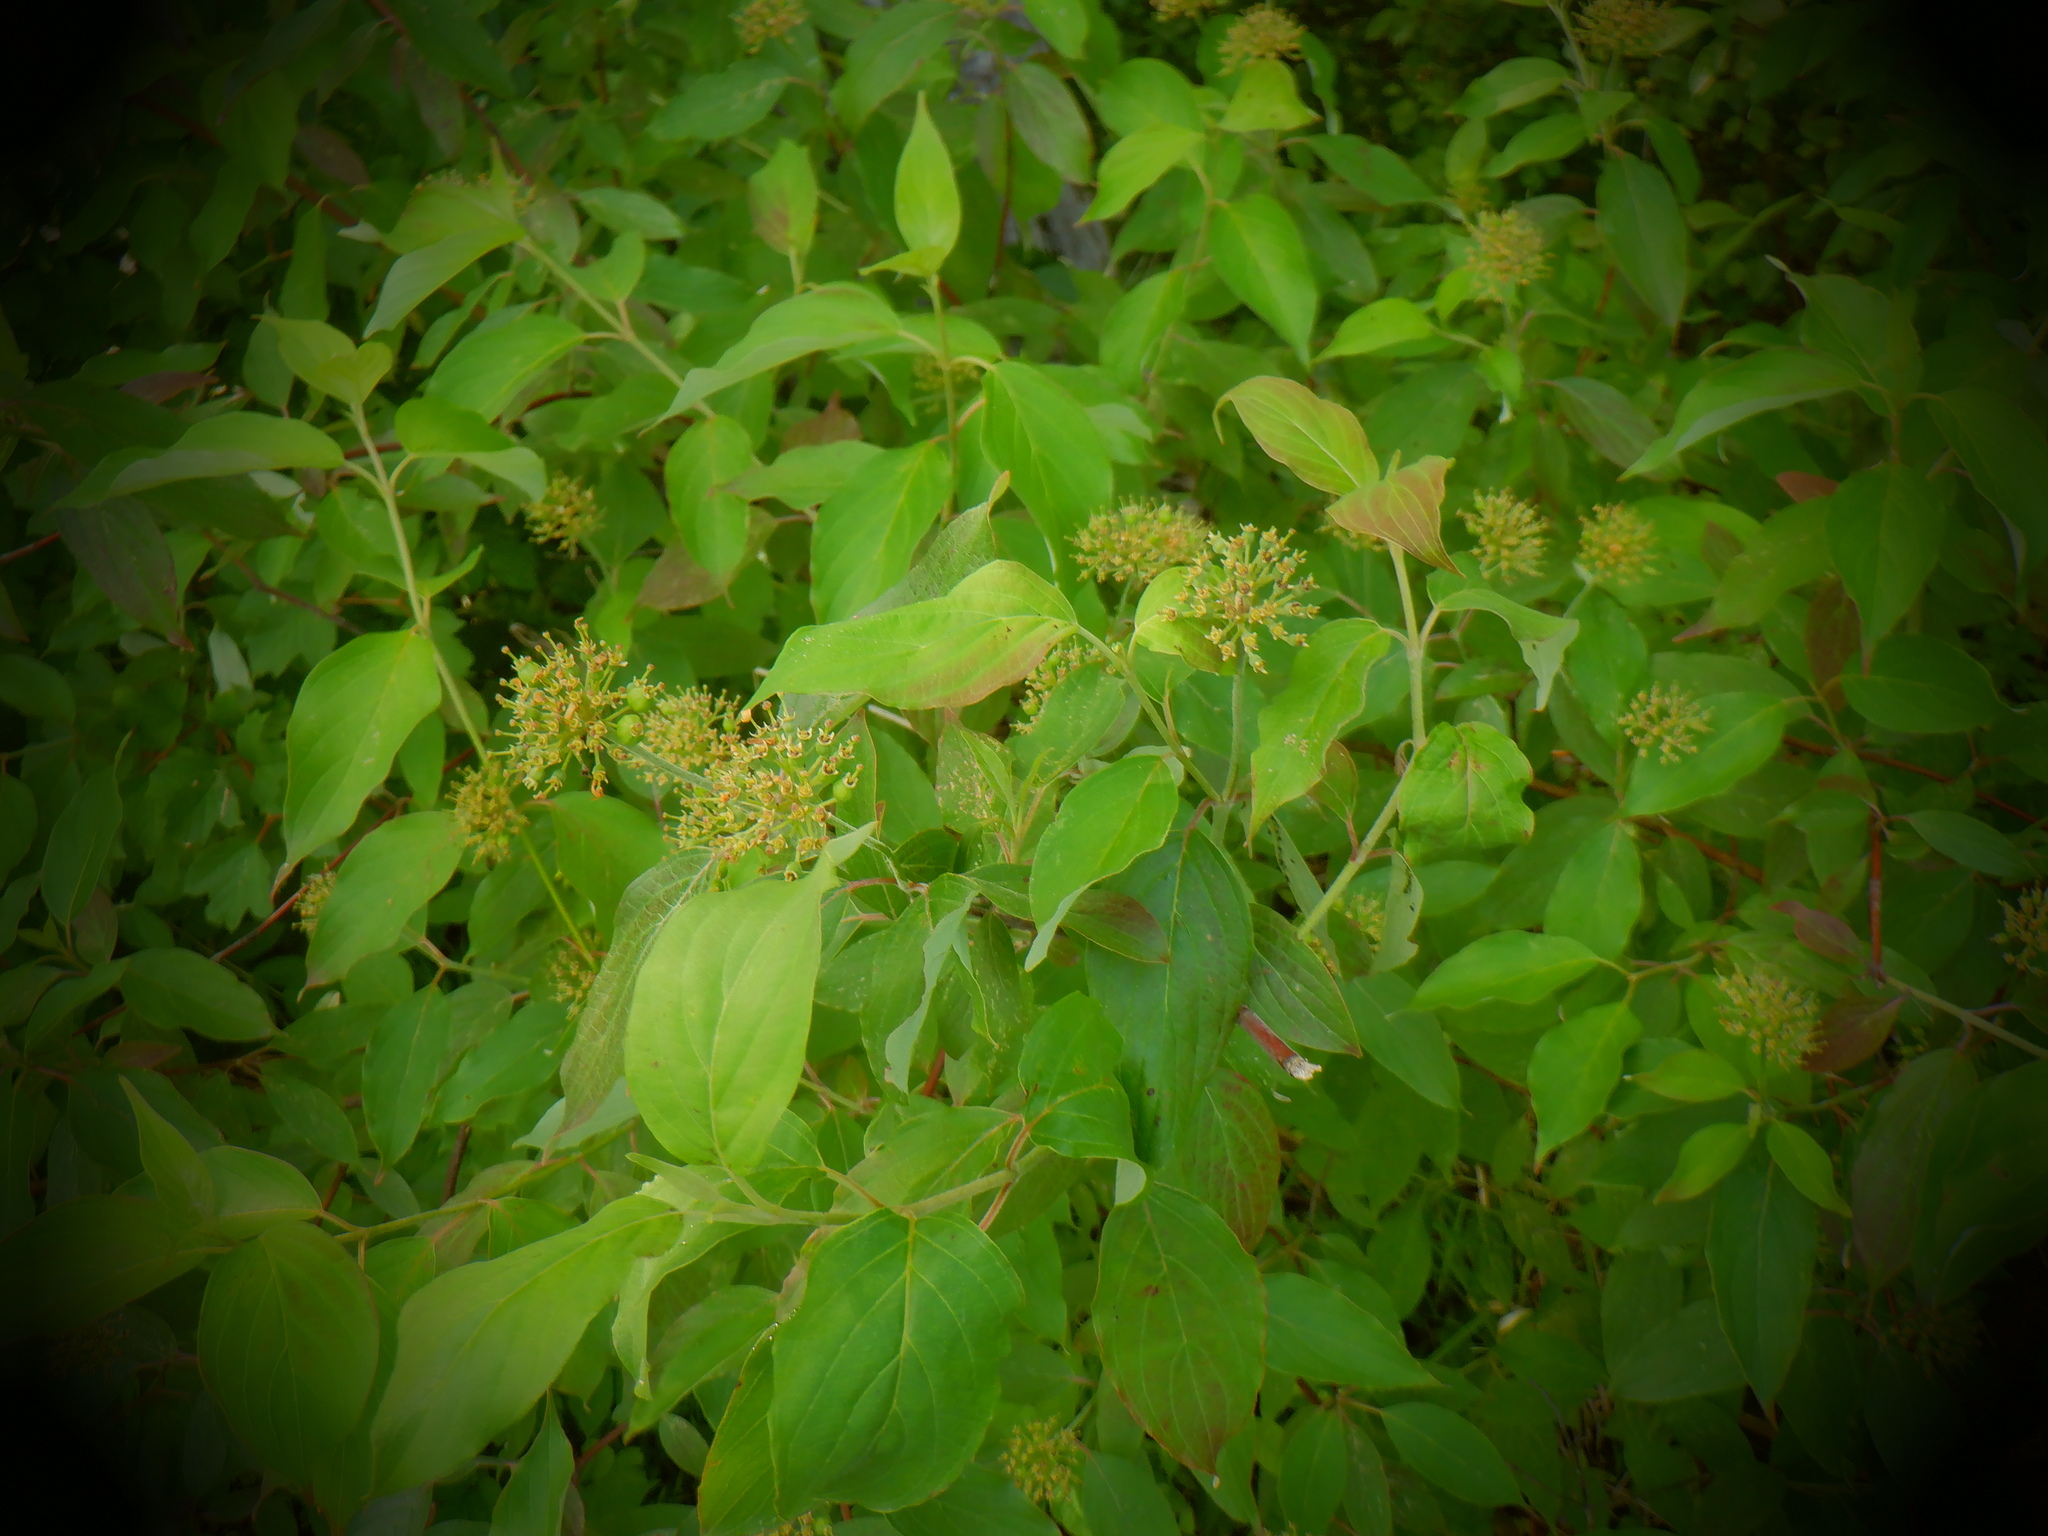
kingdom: Plantae
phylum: Tracheophyta
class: Magnoliopsida
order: Cornales
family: Cornaceae
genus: Cornus
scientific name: Cornus amomum
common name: Silky dogwood
